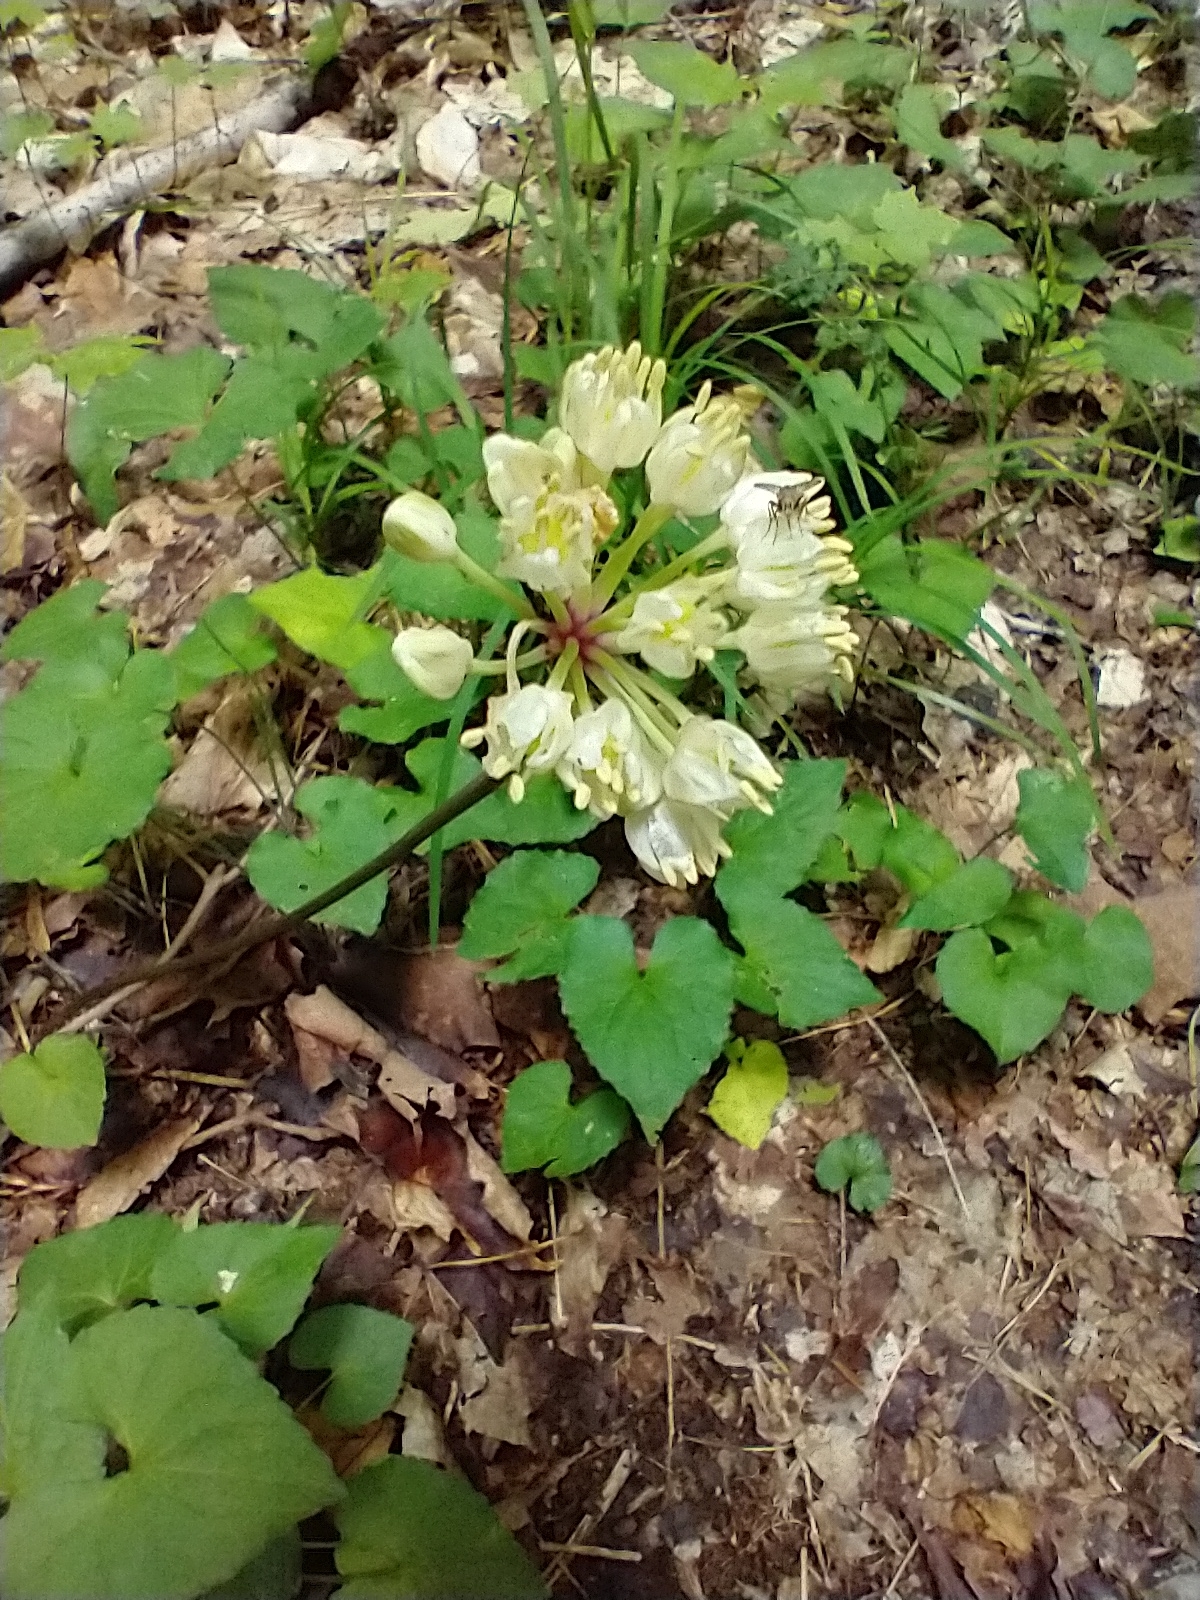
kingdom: Plantae
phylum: Tracheophyta
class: Liliopsida
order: Asparagales
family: Amaryllidaceae
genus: Allium
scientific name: Allium tricoccum
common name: Ramp
